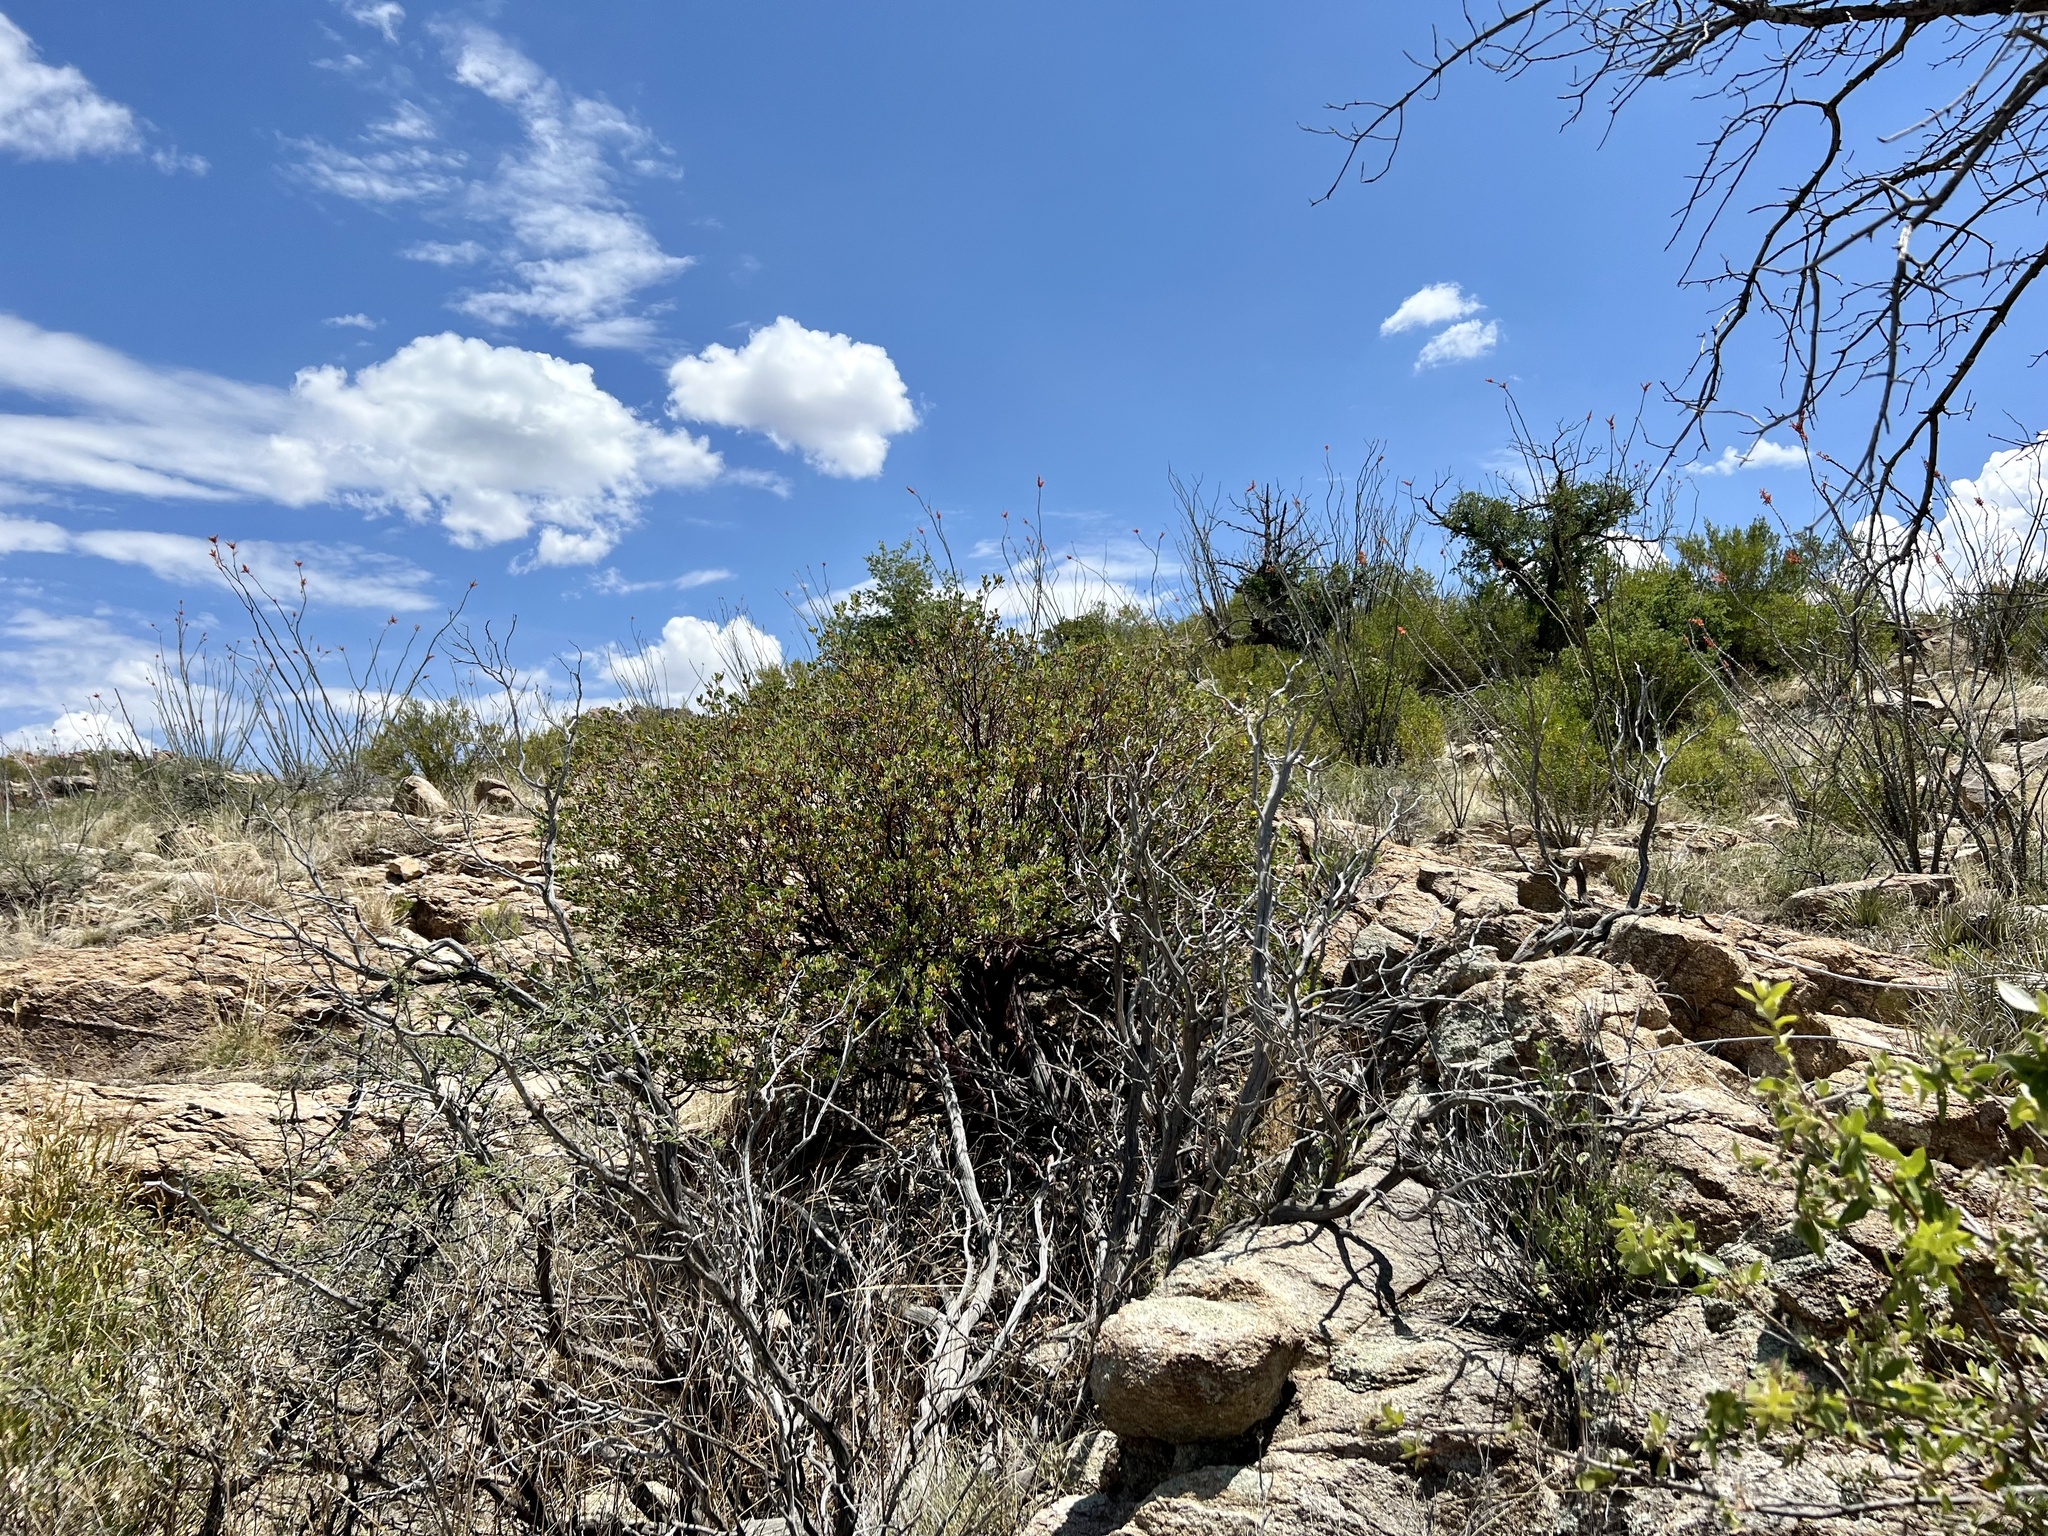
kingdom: Plantae
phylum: Tracheophyta
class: Magnoliopsida
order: Ericales
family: Ericaceae
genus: Arctostaphylos
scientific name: Arctostaphylos pungens
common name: Mexican manzanita
